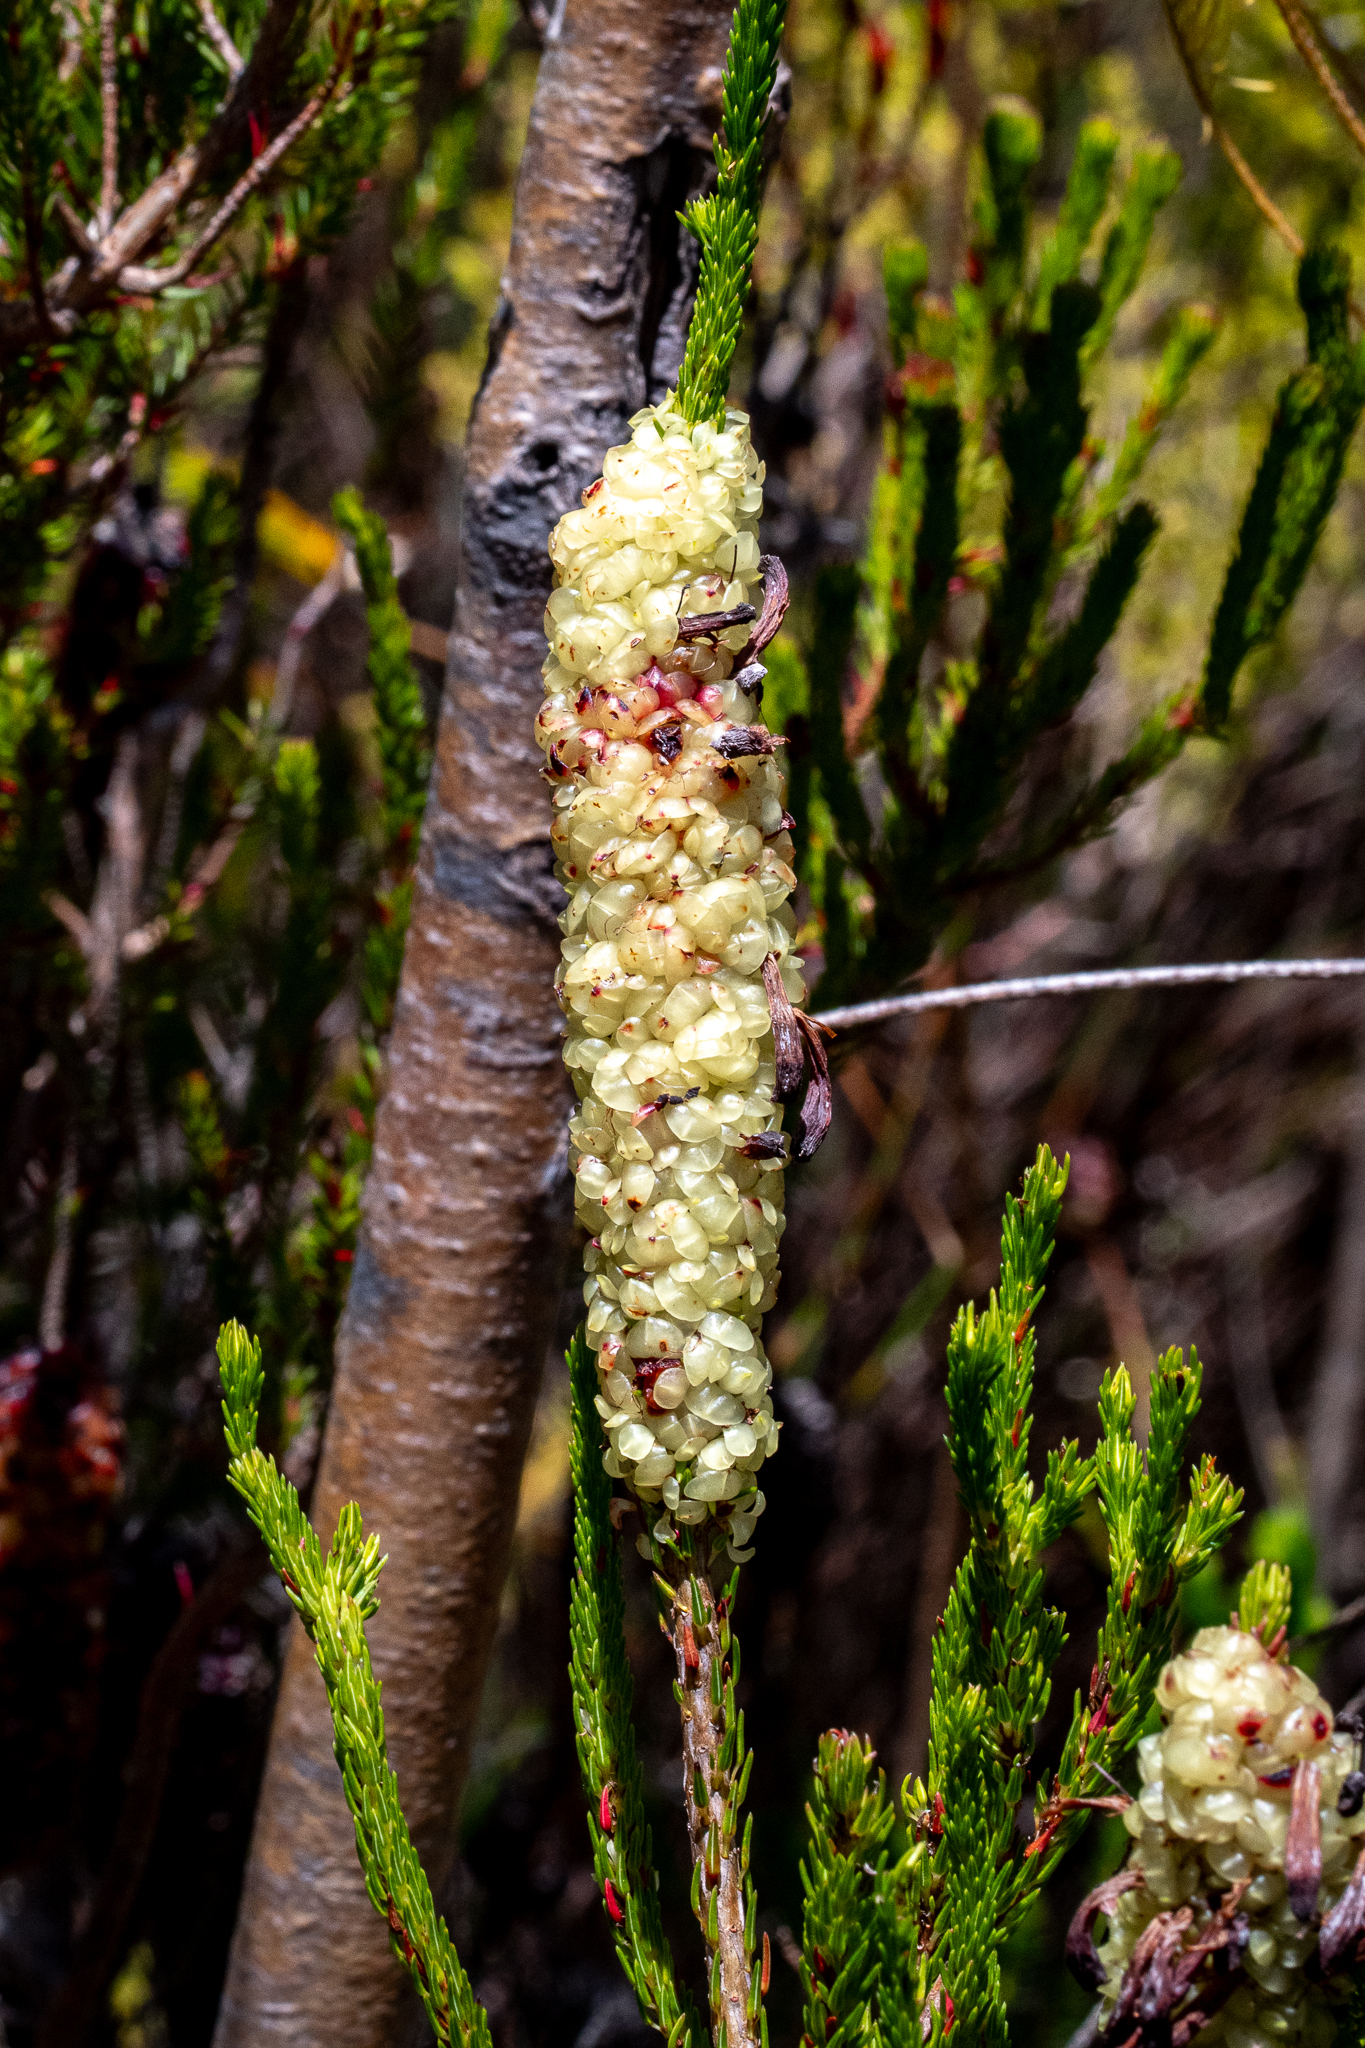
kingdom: Plantae
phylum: Tracheophyta
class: Magnoliopsida
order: Ericales
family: Ericaceae
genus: Erica
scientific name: Erica sessiliflora
